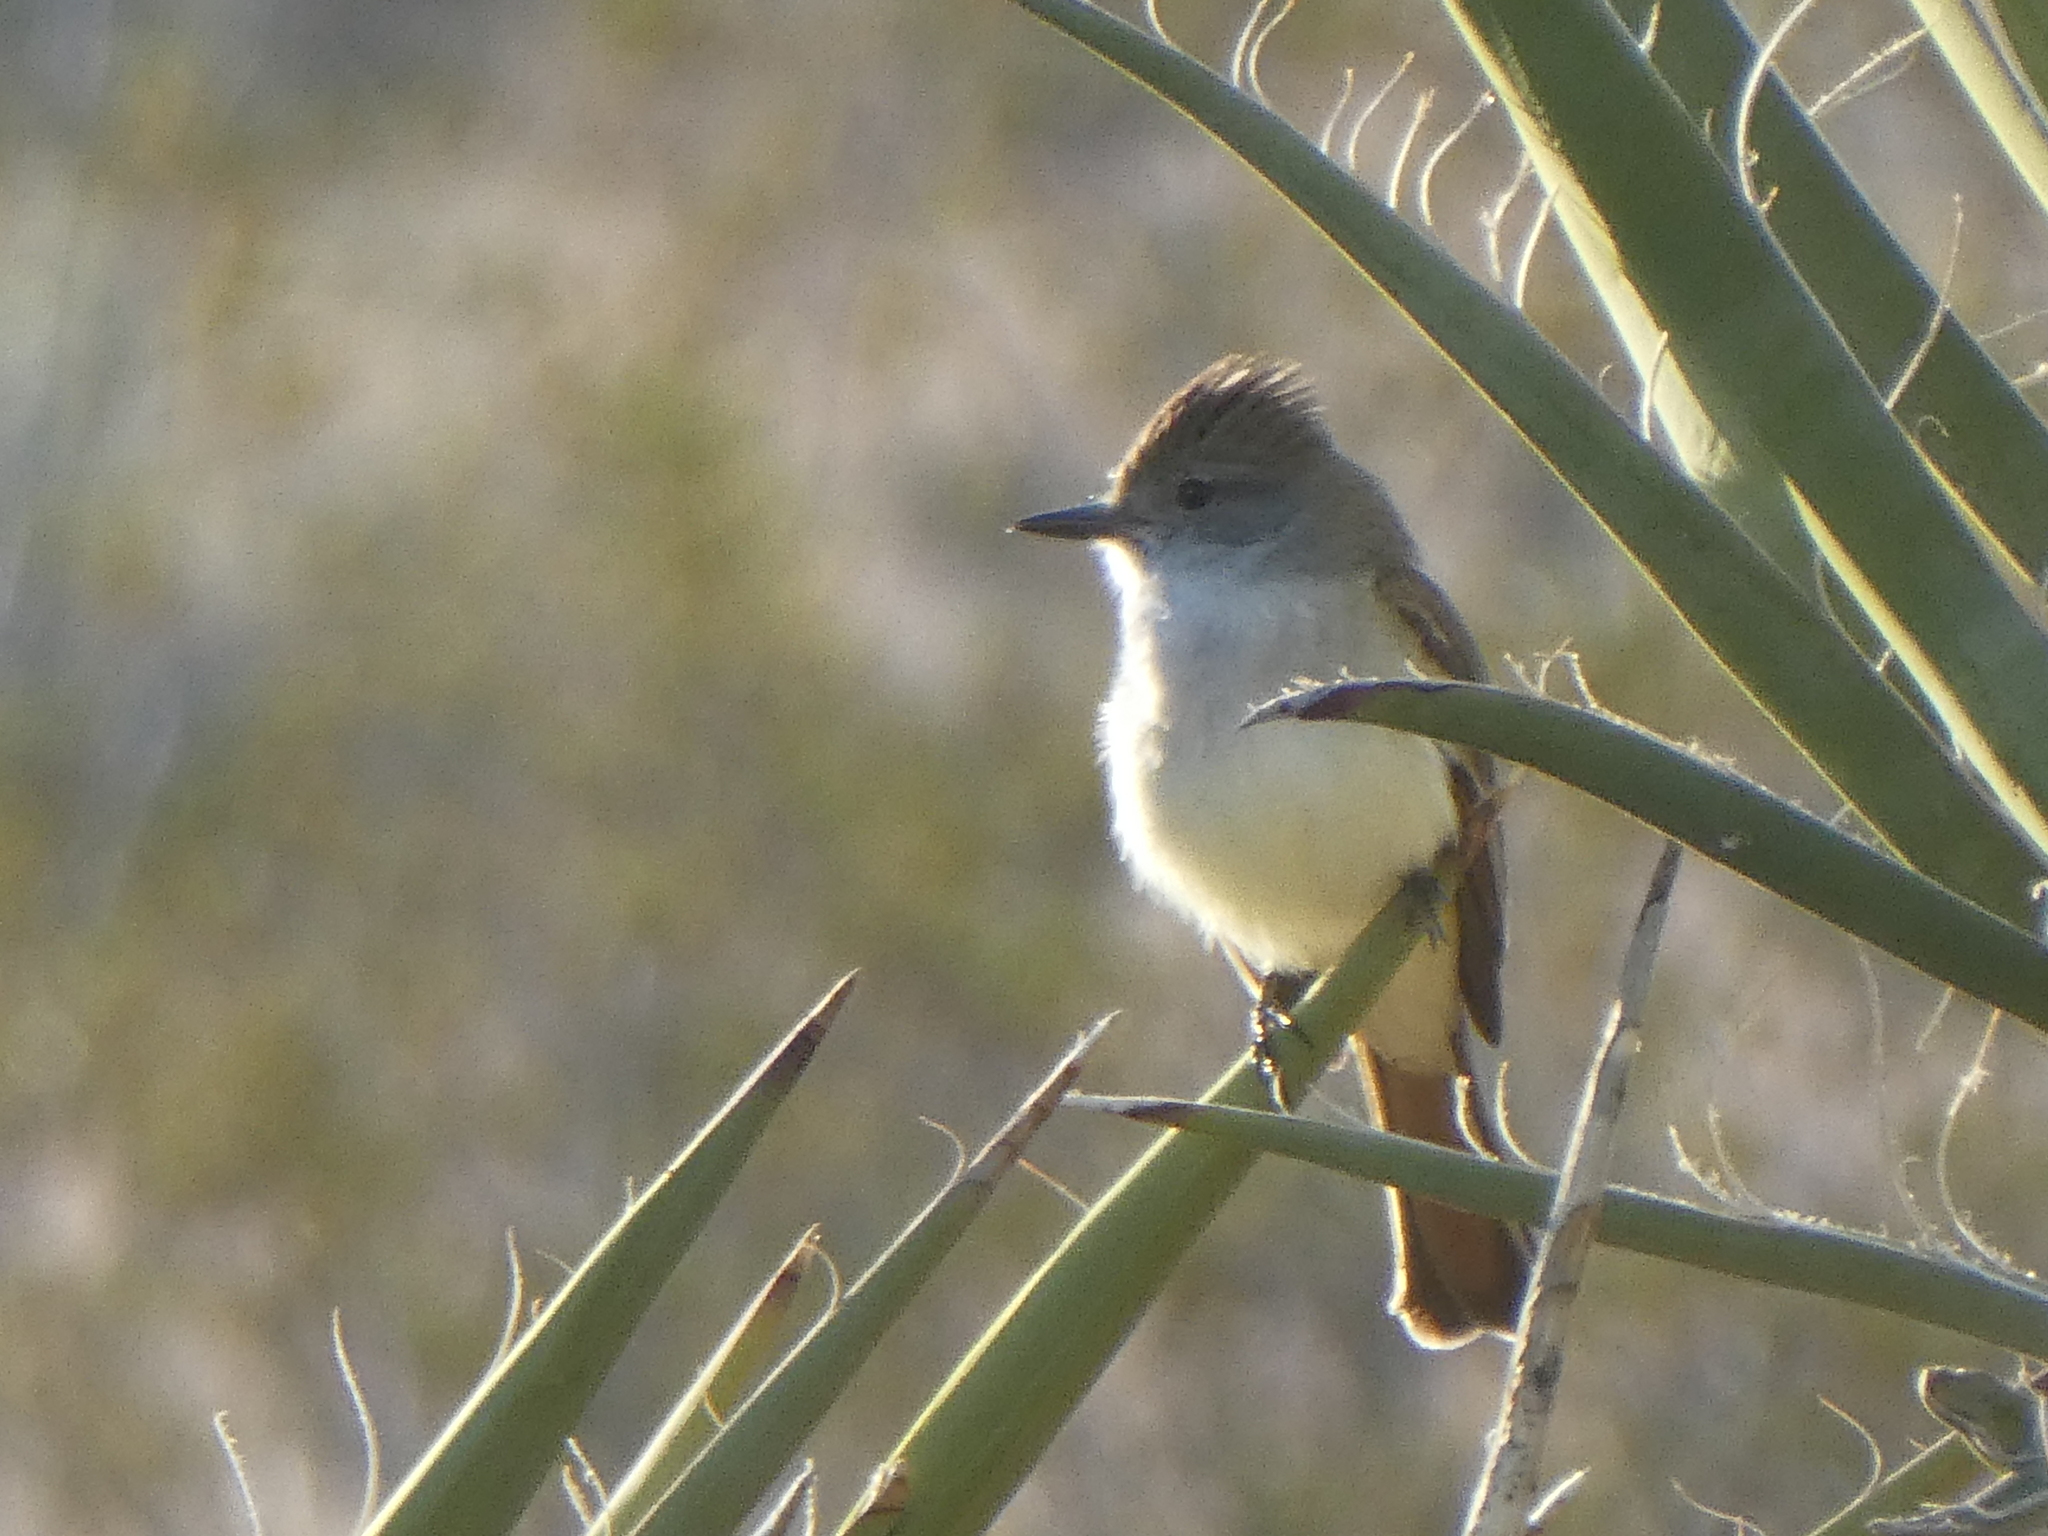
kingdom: Animalia
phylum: Chordata
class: Aves
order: Passeriformes
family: Tyrannidae
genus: Myiarchus
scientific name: Myiarchus cinerascens
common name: Ash-throated flycatcher
